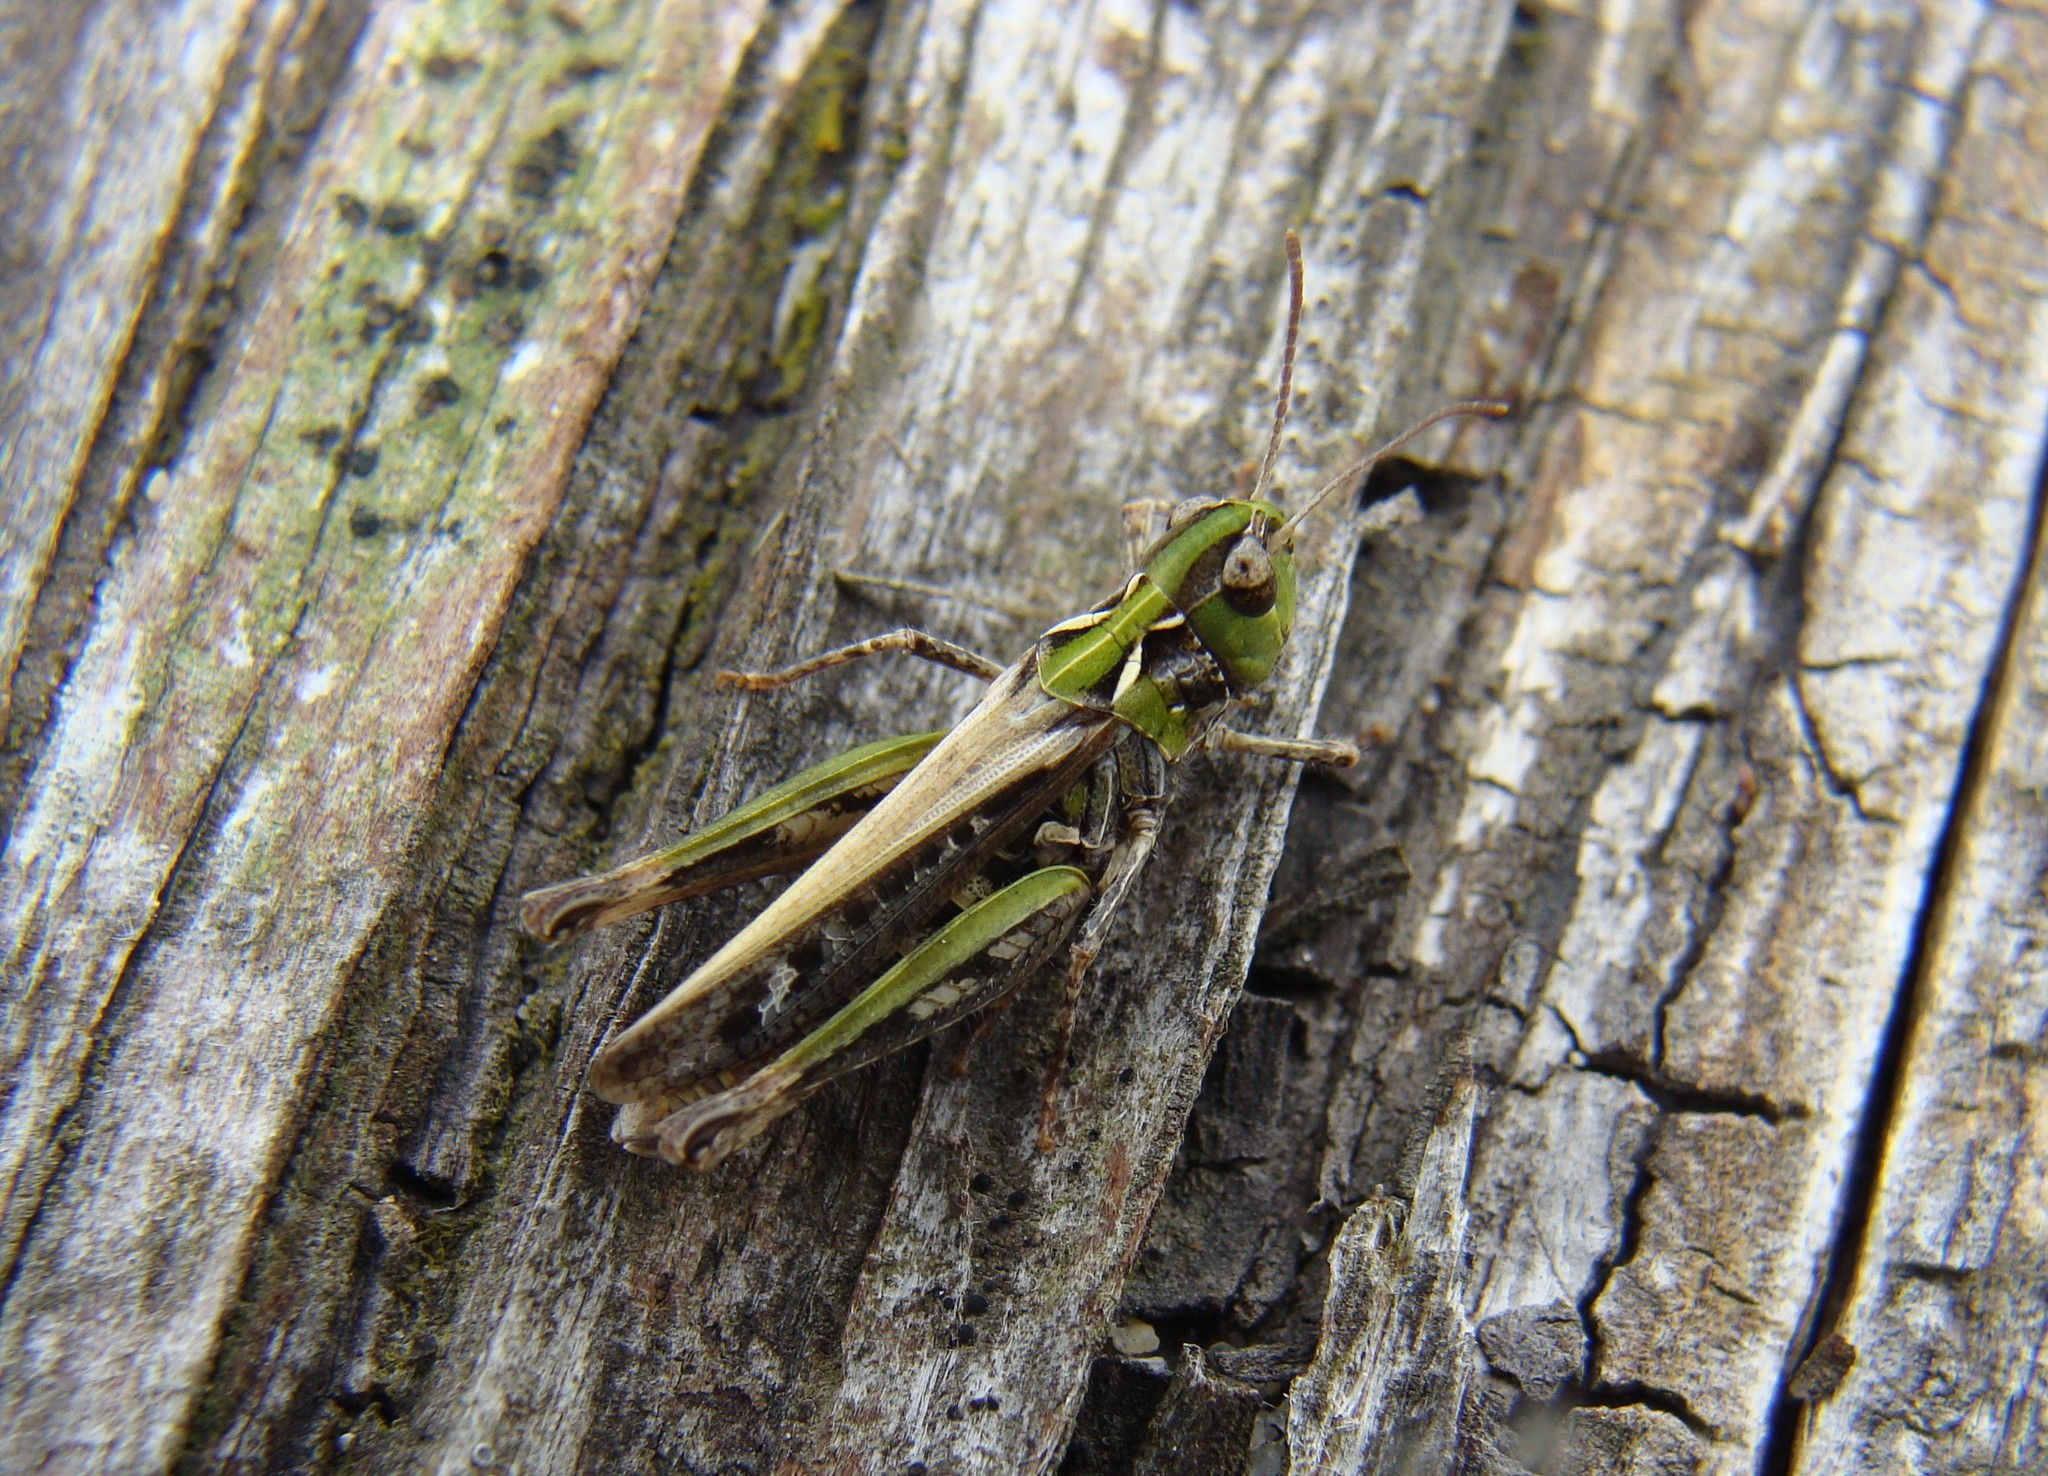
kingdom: Animalia
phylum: Arthropoda
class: Insecta
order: Orthoptera
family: Acrididae
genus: Myrmeleotettix
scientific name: Myrmeleotettix maculatus
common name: Mottled grasshopper
